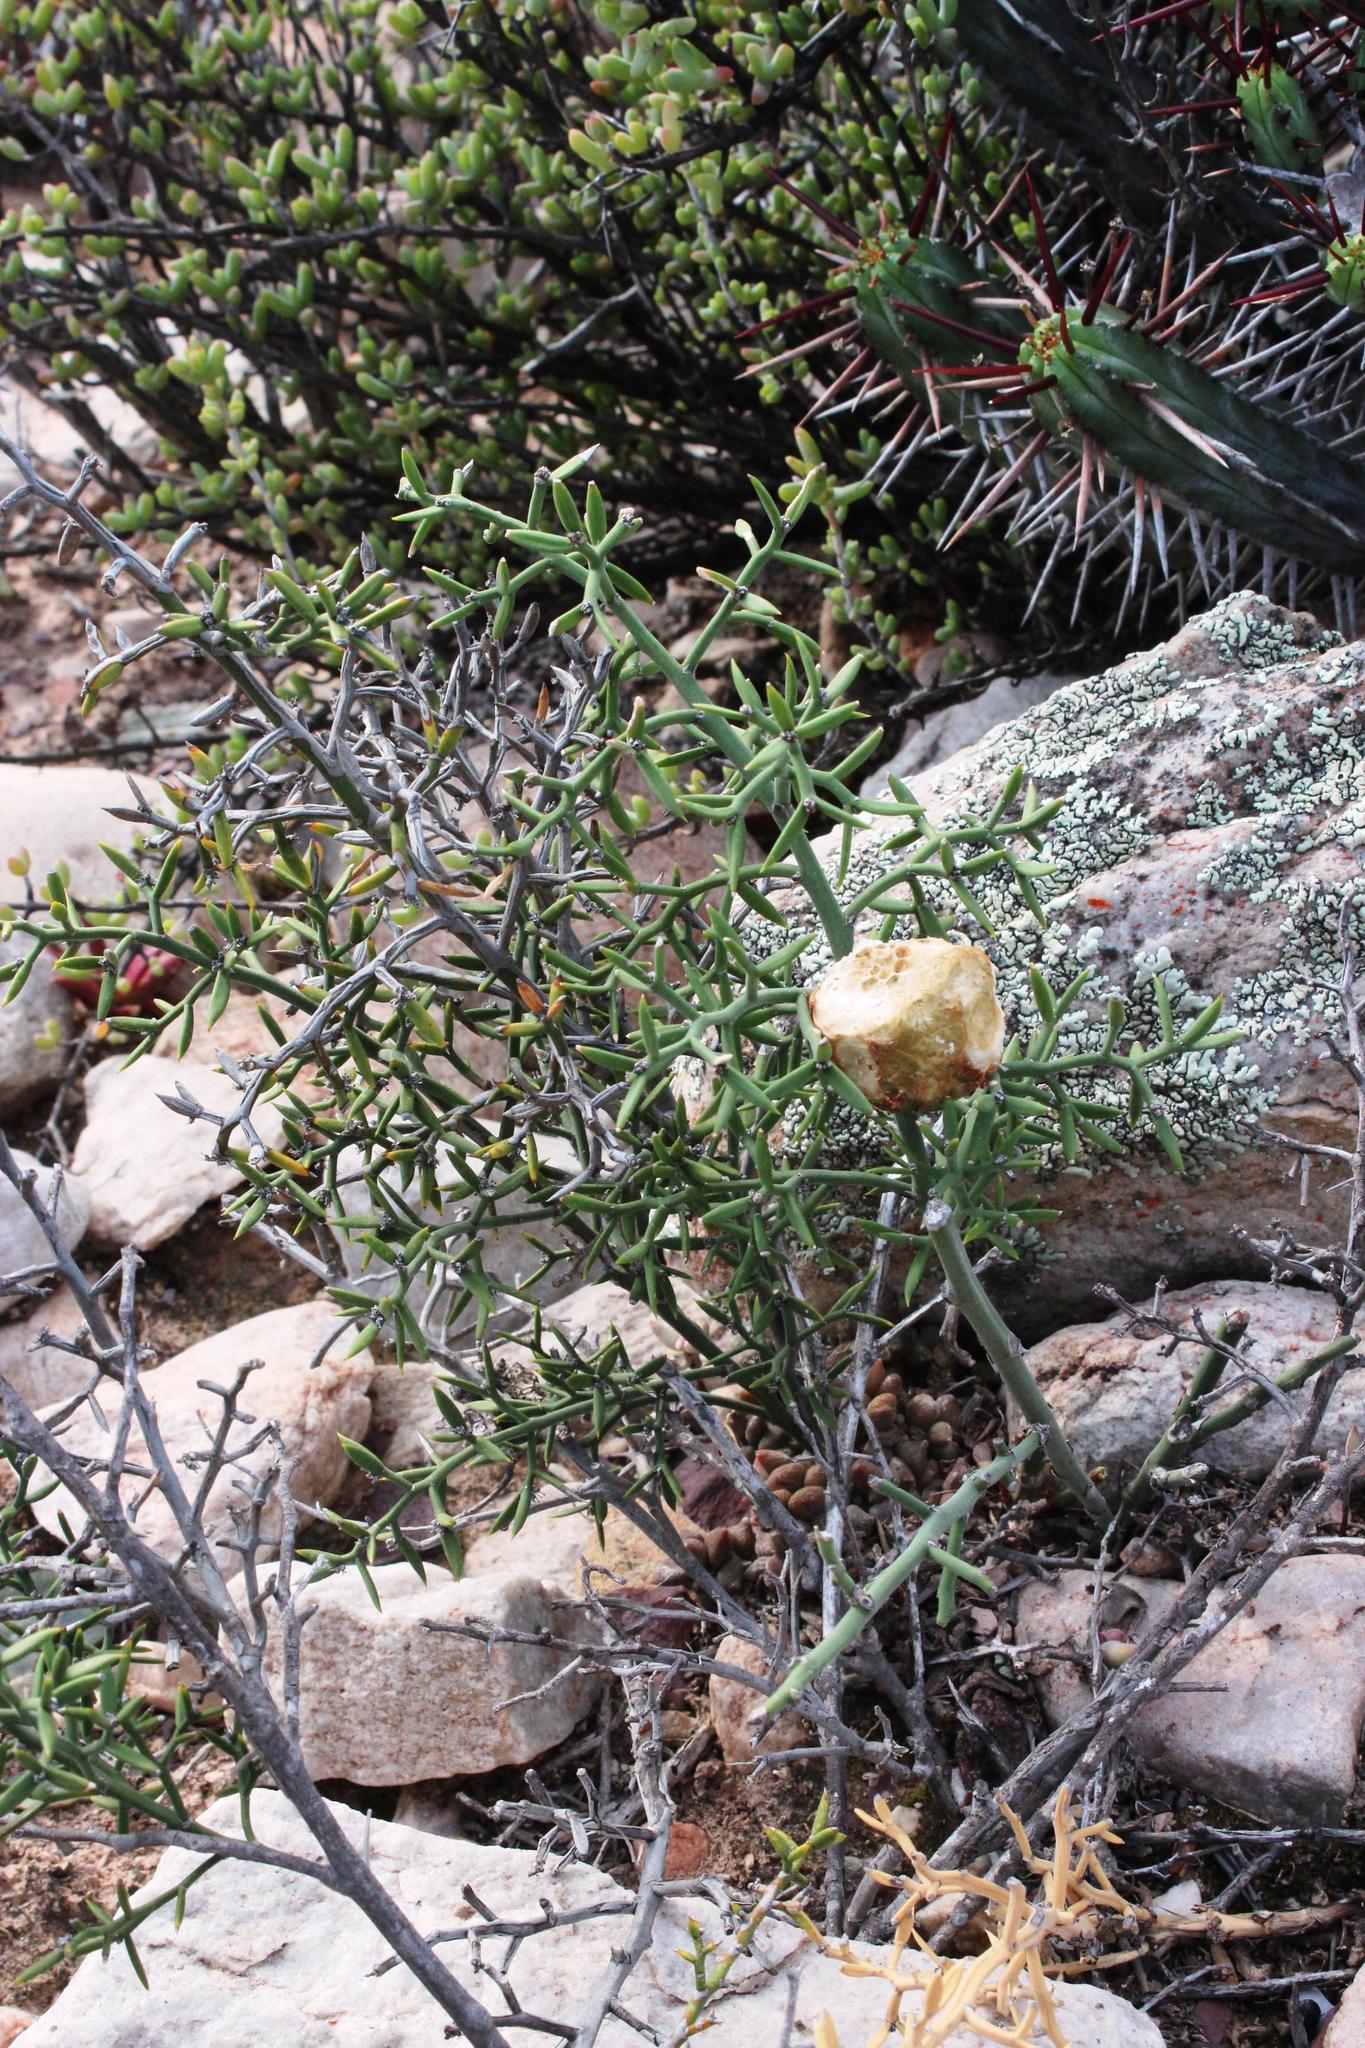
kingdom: Plantae
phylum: Tracheophyta
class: Liliopsida
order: Asparagales
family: Asparagaceae
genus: Asparagus
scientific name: Asparagus striatus
